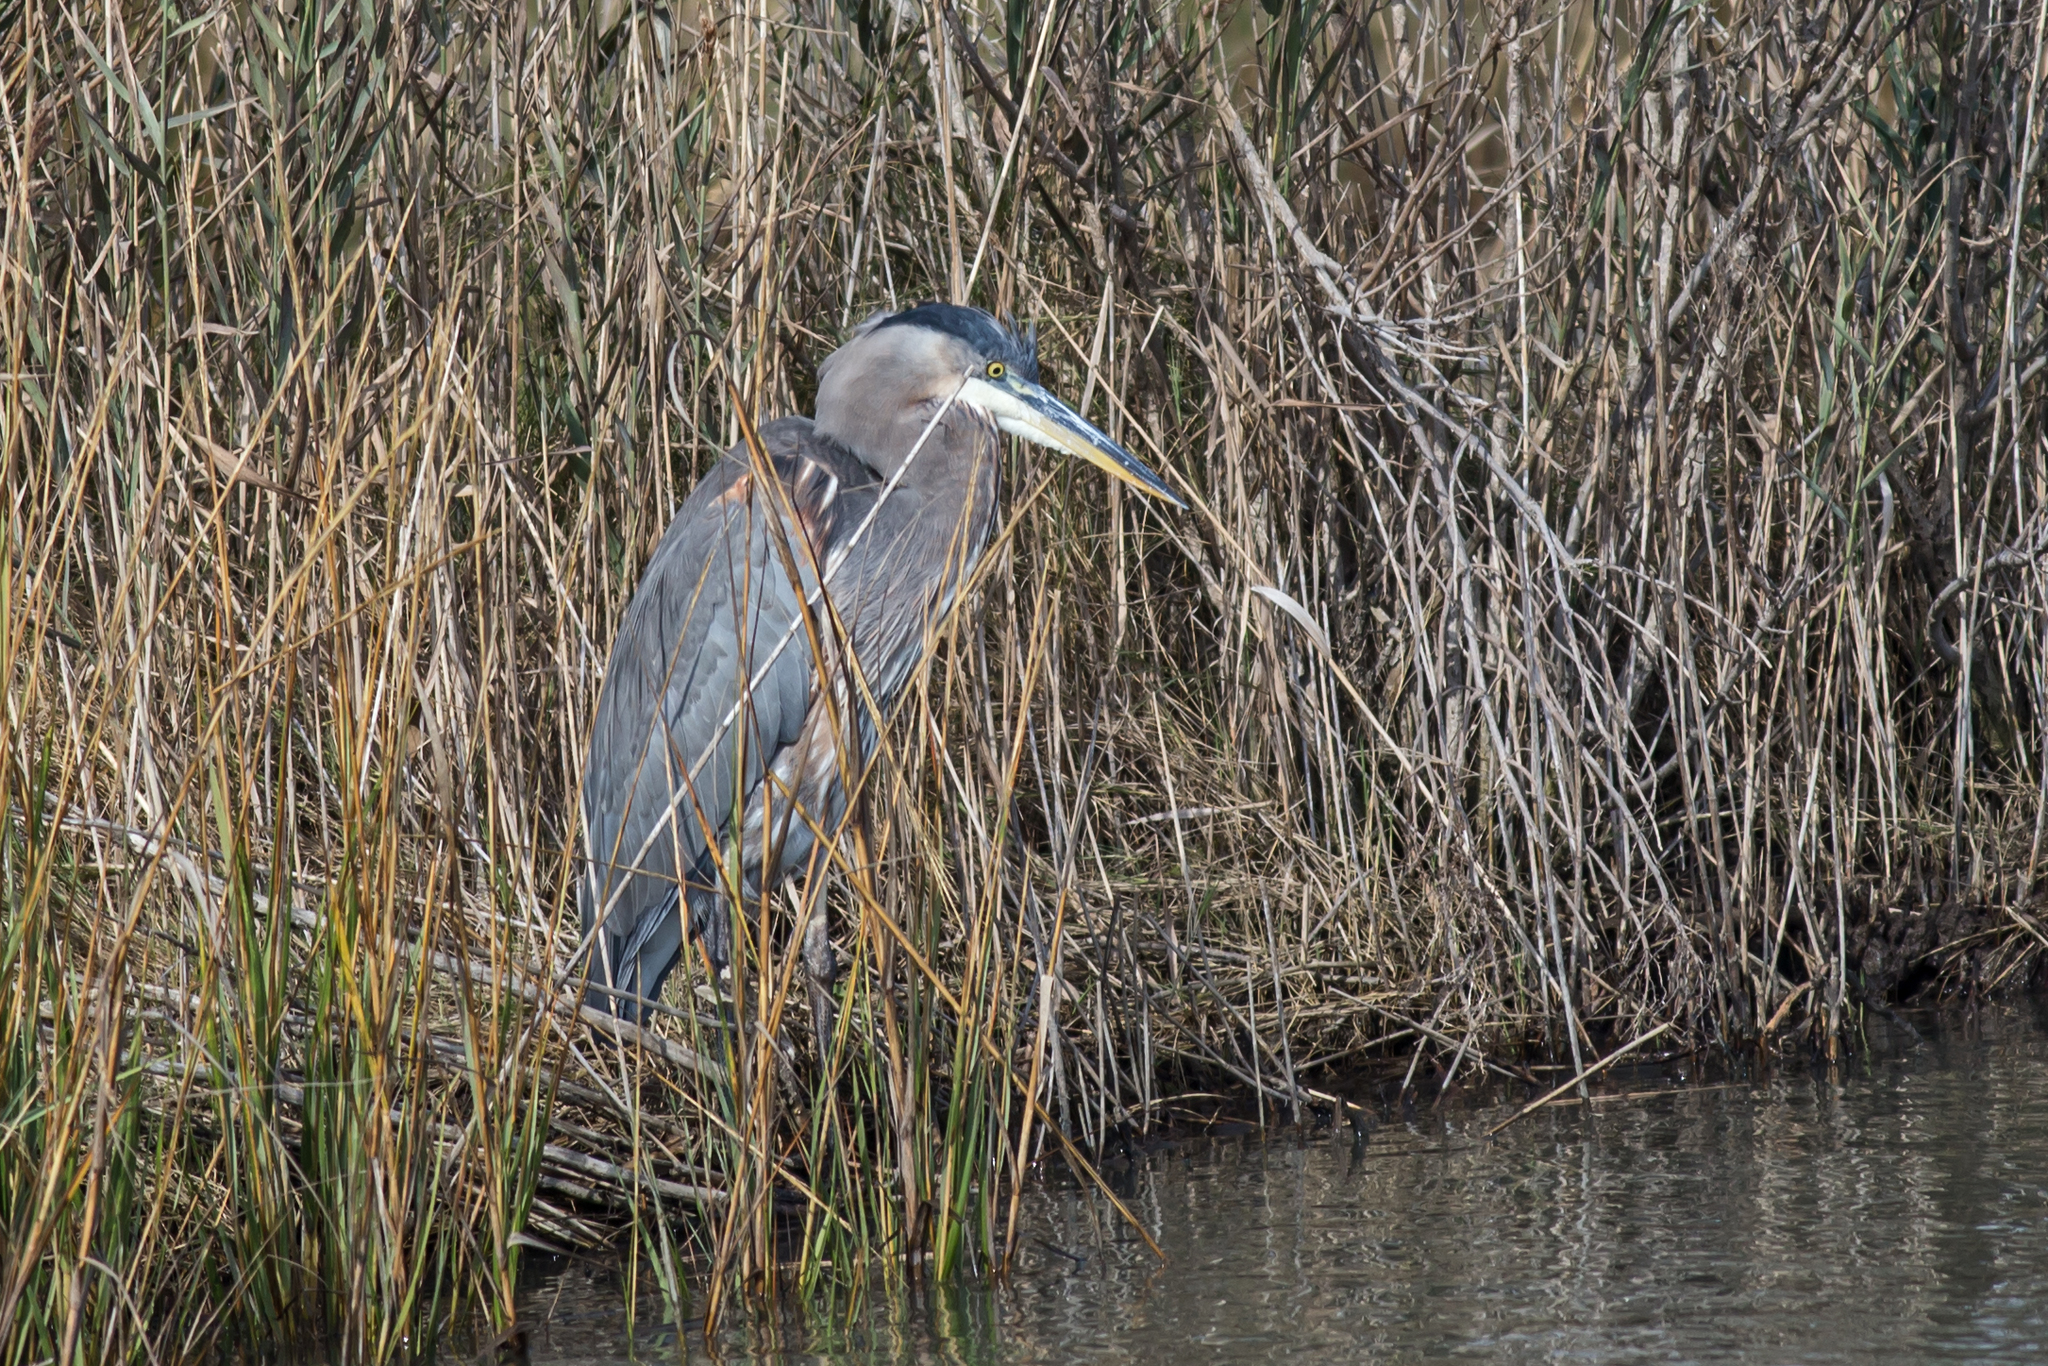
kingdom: Animalia
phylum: Chordata
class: Aves
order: Pelecaniformes
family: Ardeidae
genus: Ardea
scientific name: Ardea herodias
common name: Great blue heron
